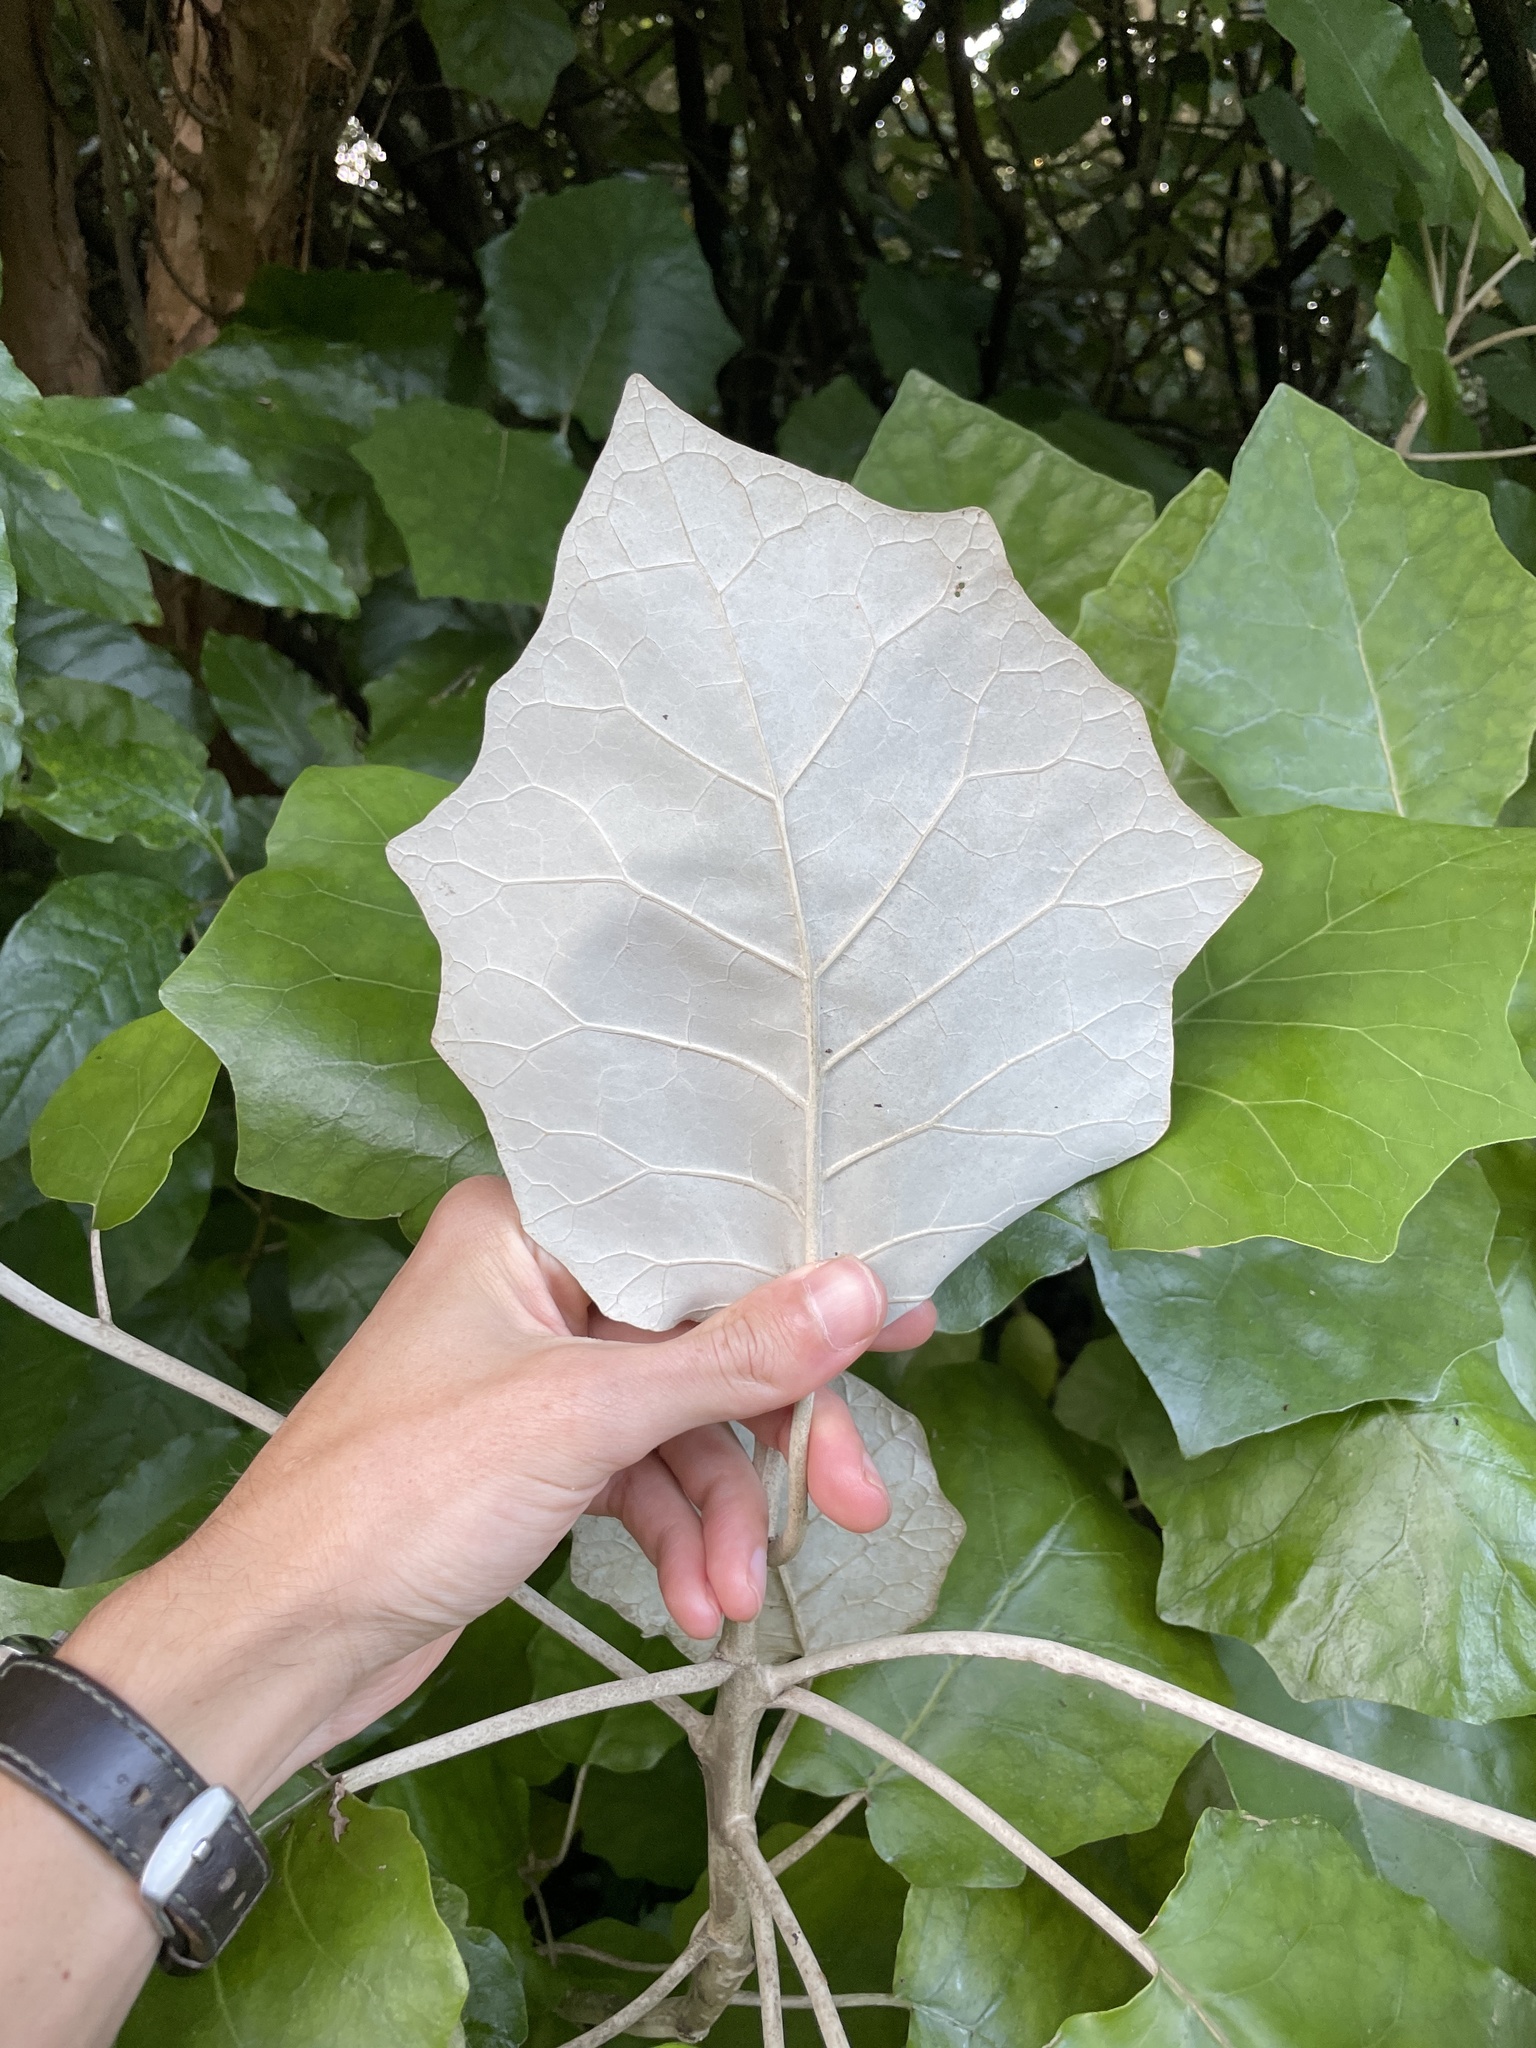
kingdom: Plantae
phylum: Tracheophyta
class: Magnoliopsida
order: Asterales
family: Asteraceae
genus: Brachyglottis
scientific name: Brachyglottis repanda
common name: Hedge ragwort
